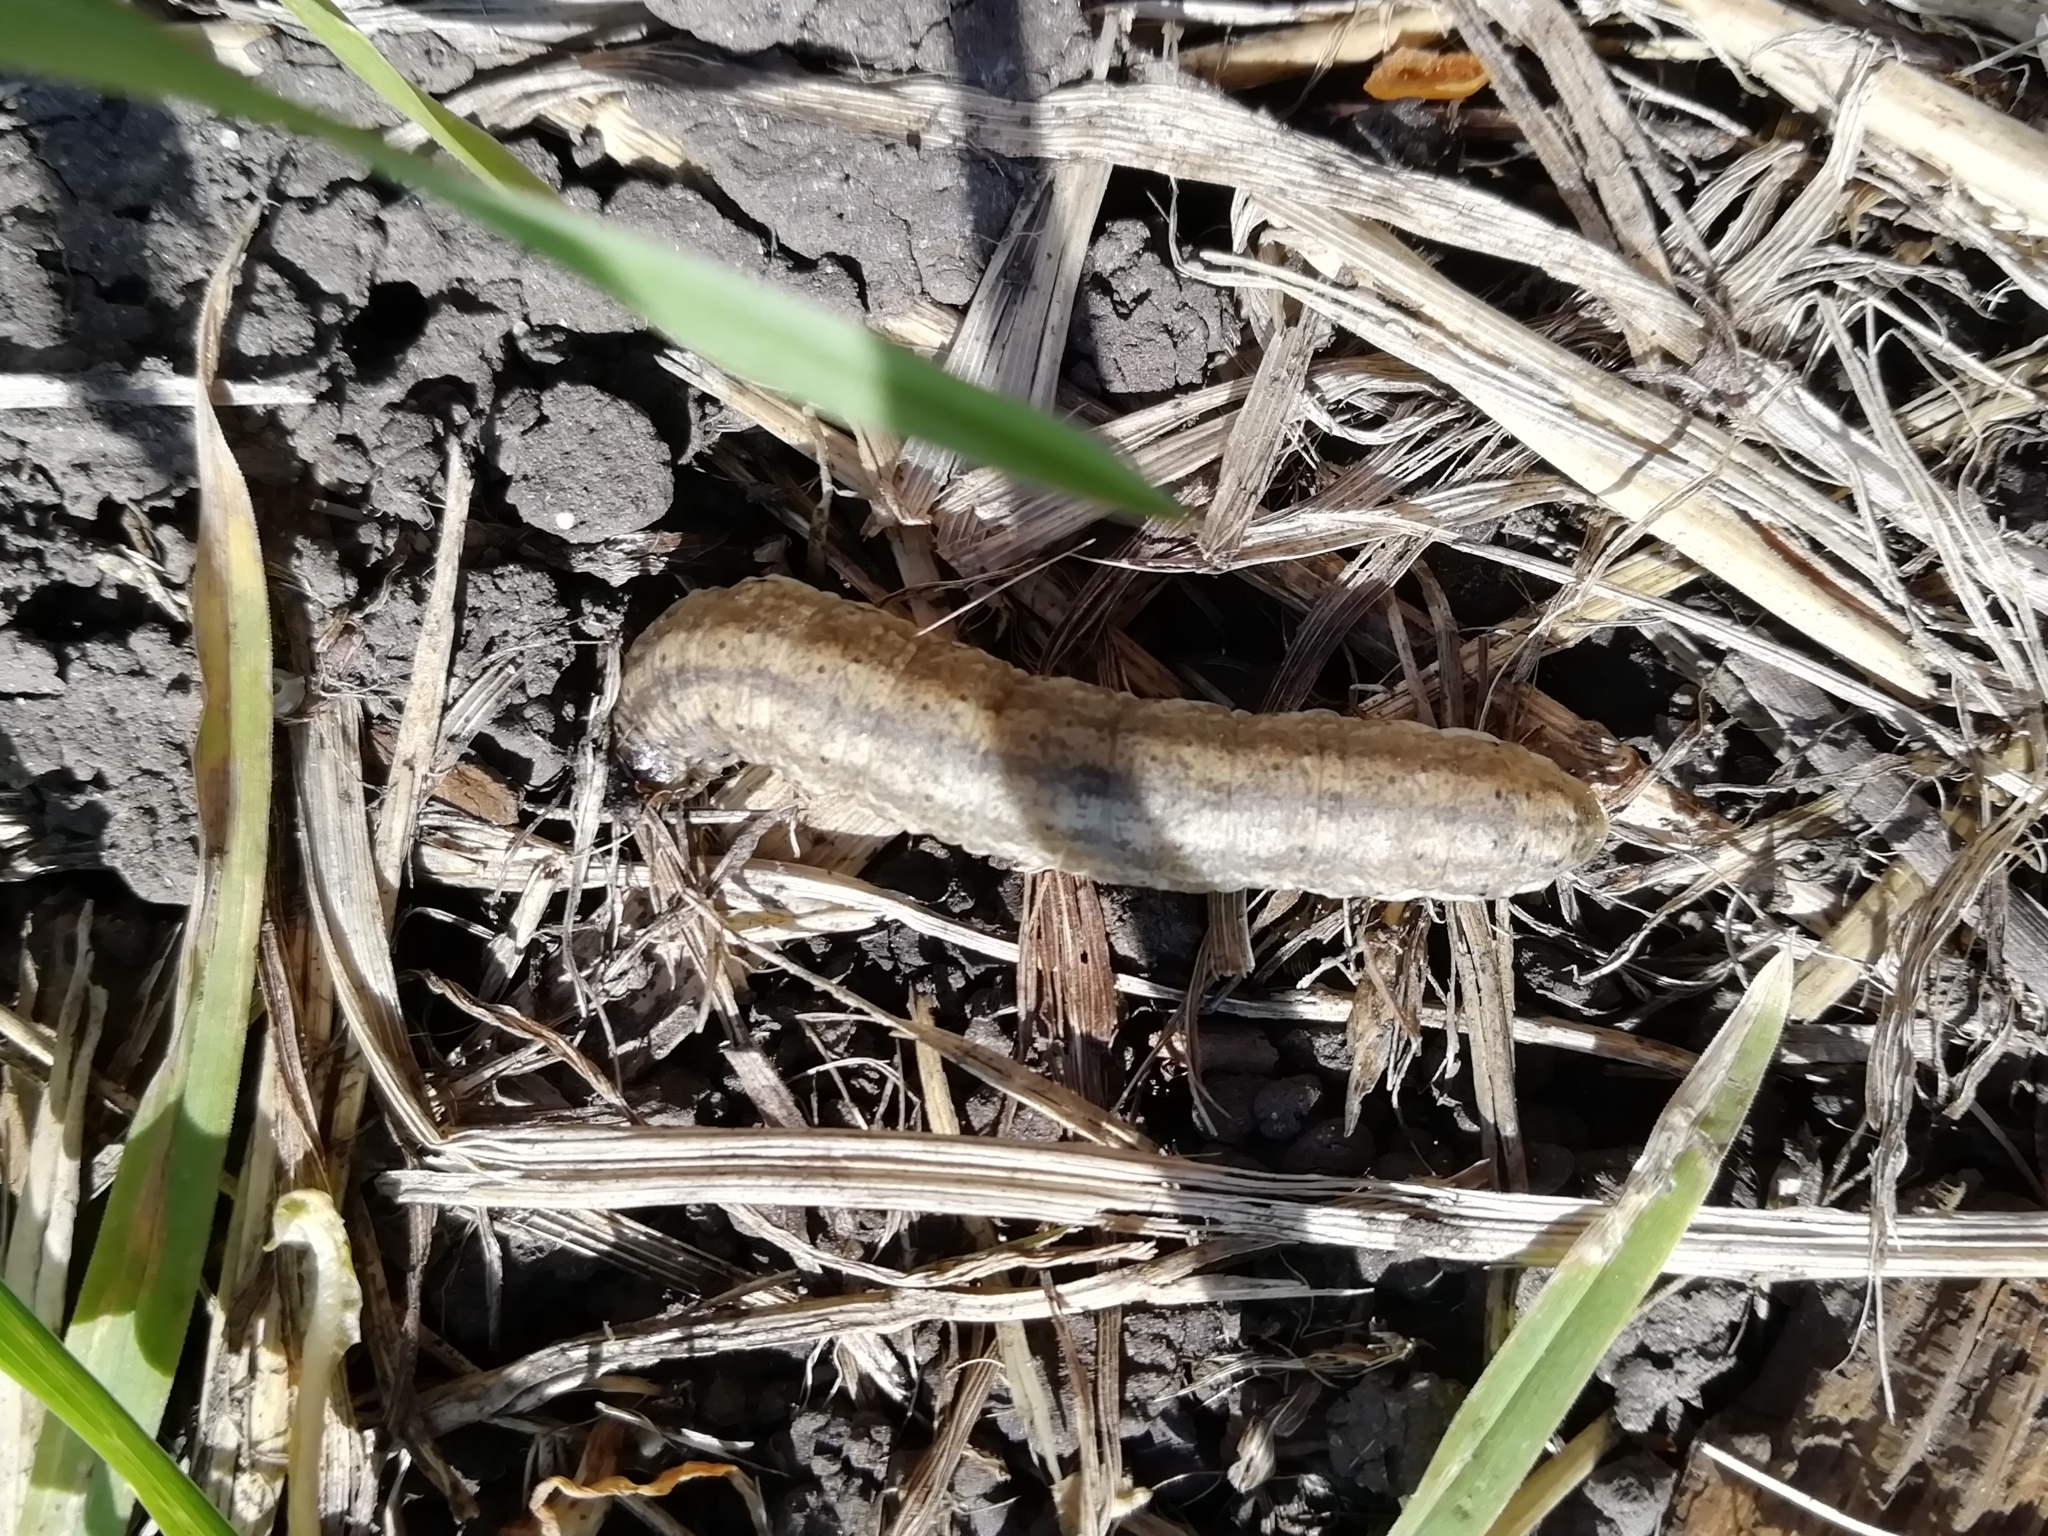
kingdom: Animalia
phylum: Arthropoda
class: Insecta
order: Lepidoptera
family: Noctuidae
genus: Agrotis
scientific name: Agrotis segetum
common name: Turnip moth
